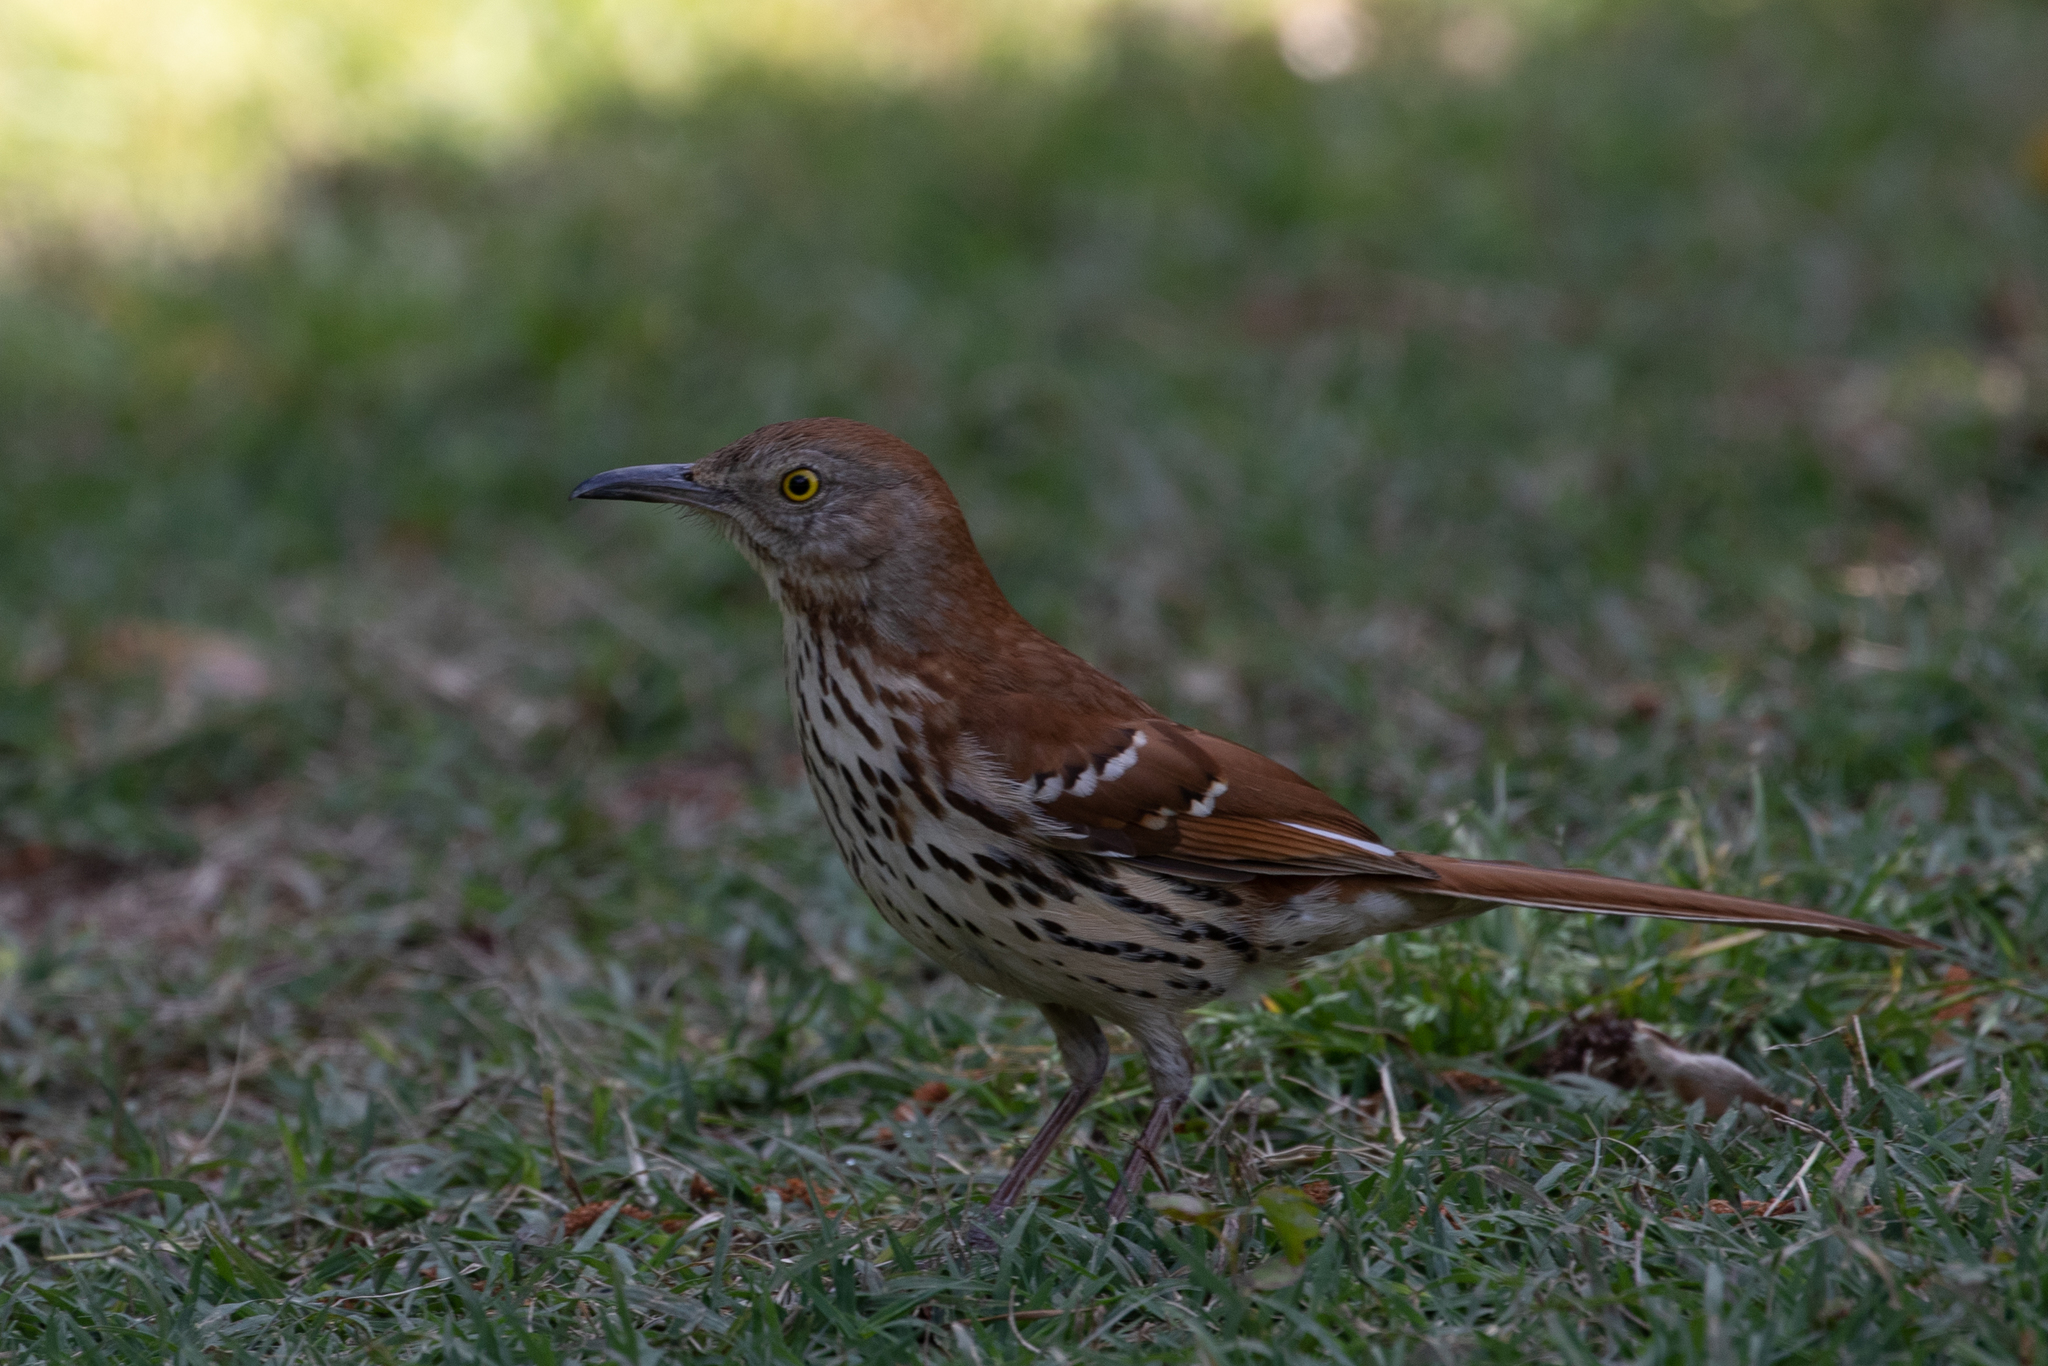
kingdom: Animalia
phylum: Chordata
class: Aves
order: Passeriformes
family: Mimidae
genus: Toxostoma
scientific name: Toxostoma rufum
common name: Brown thrasher
